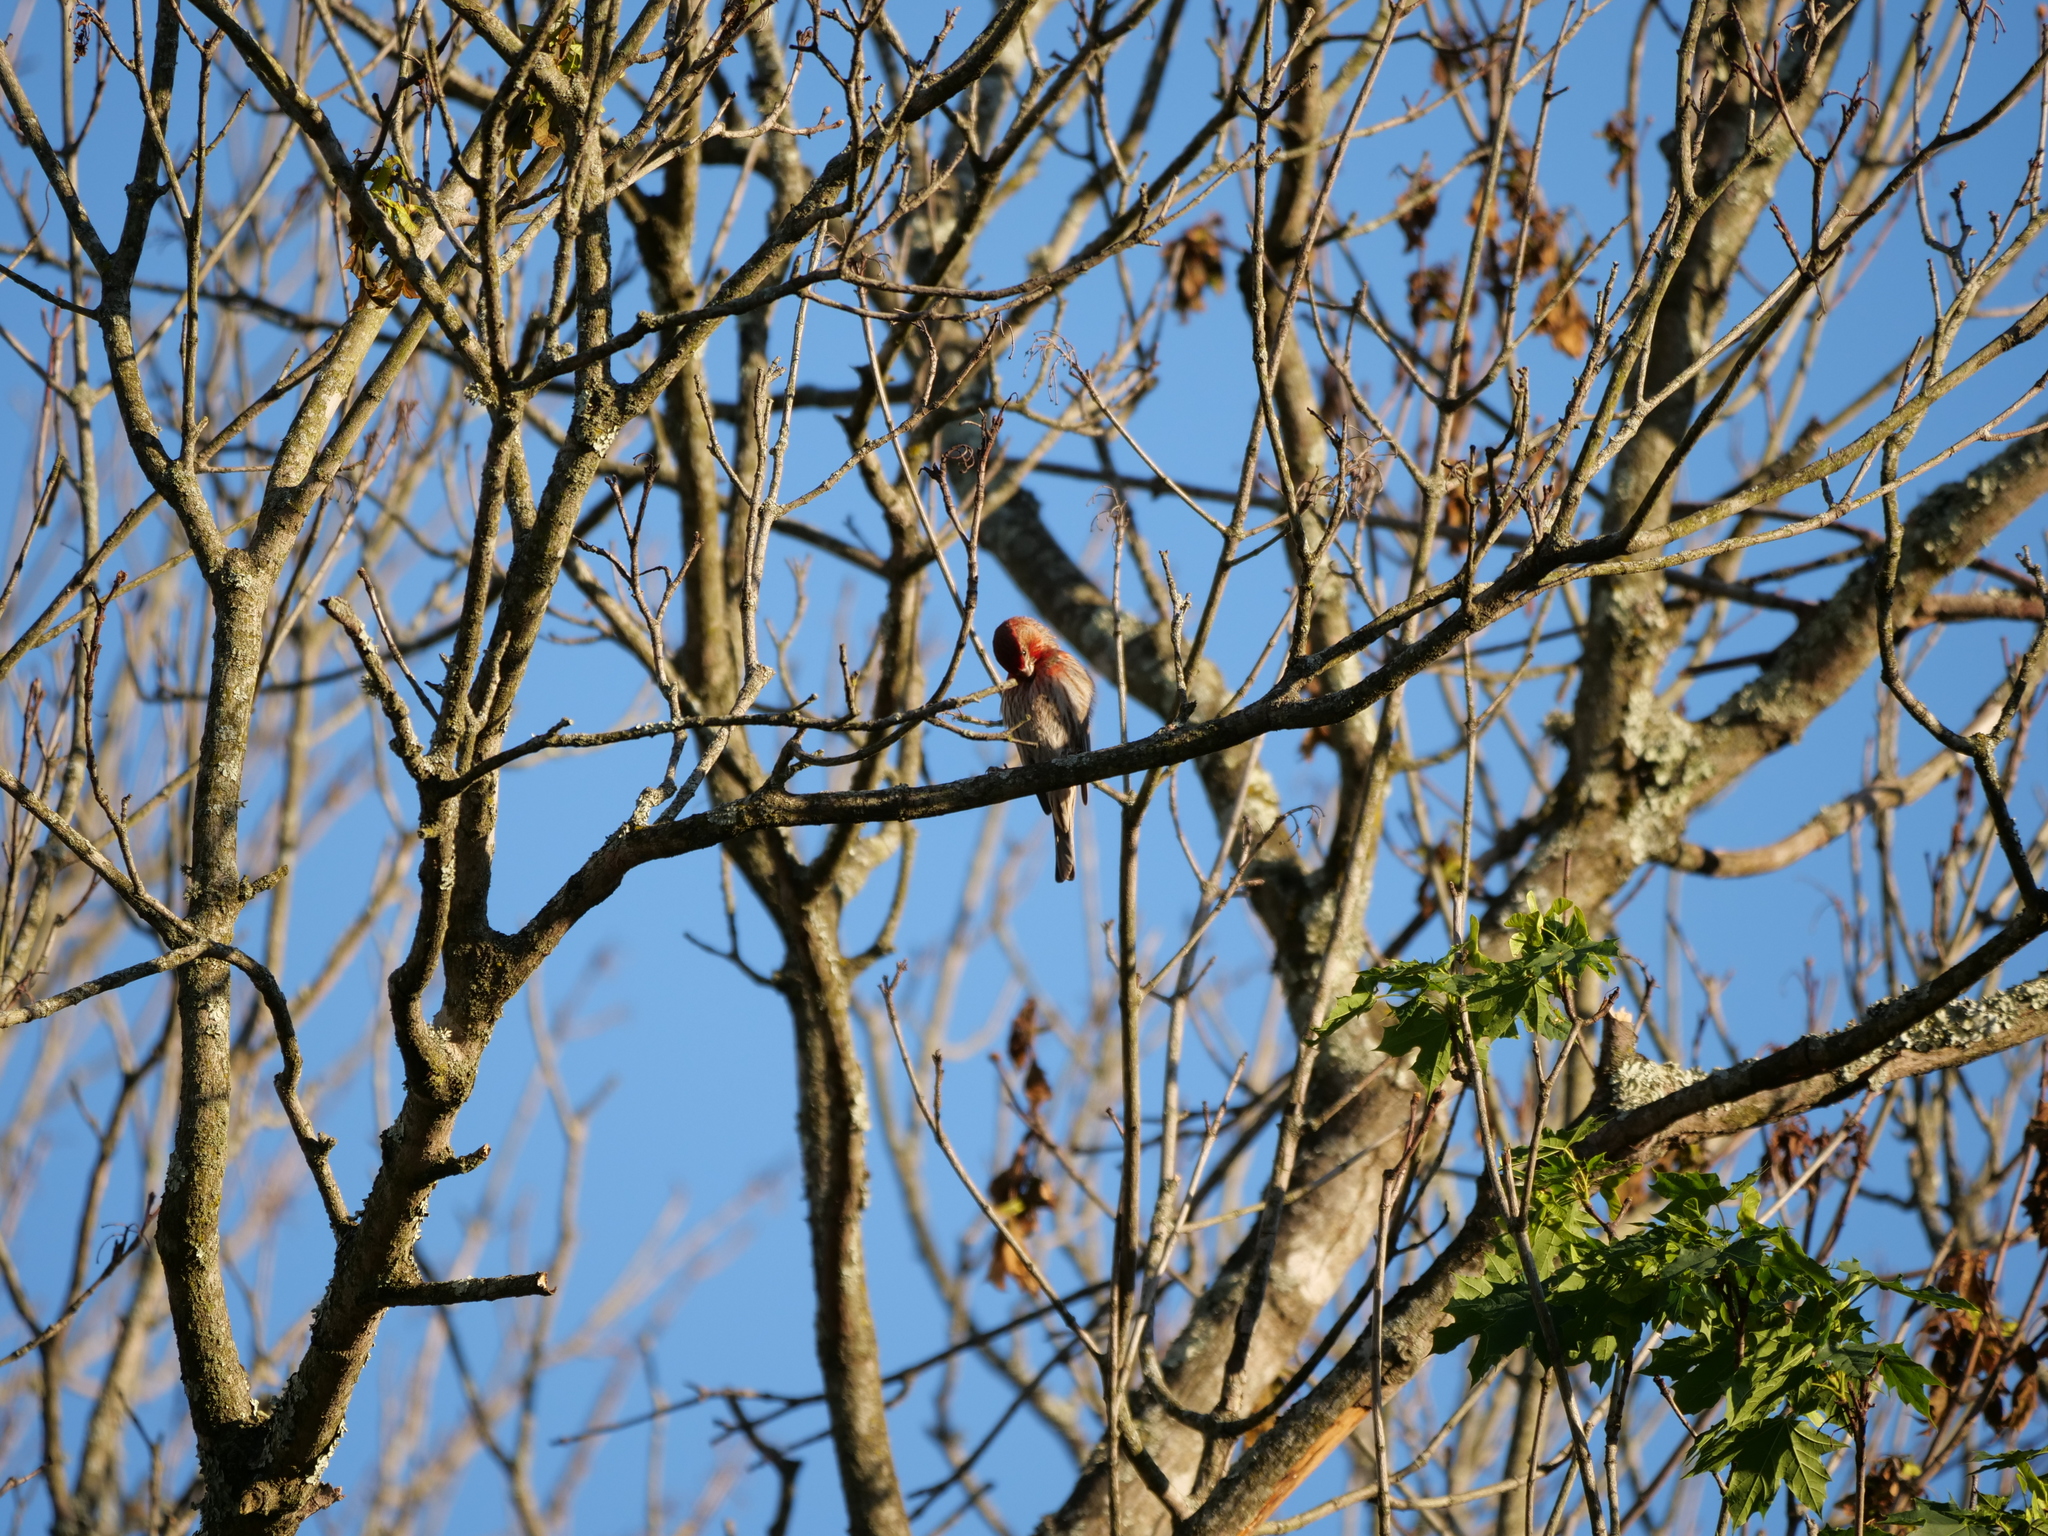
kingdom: Animalia
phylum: Chordata
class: Aves
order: Passeriformes
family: Fringillidae
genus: Haemorhous
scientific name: Haemorhous mexicanus
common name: House finch
